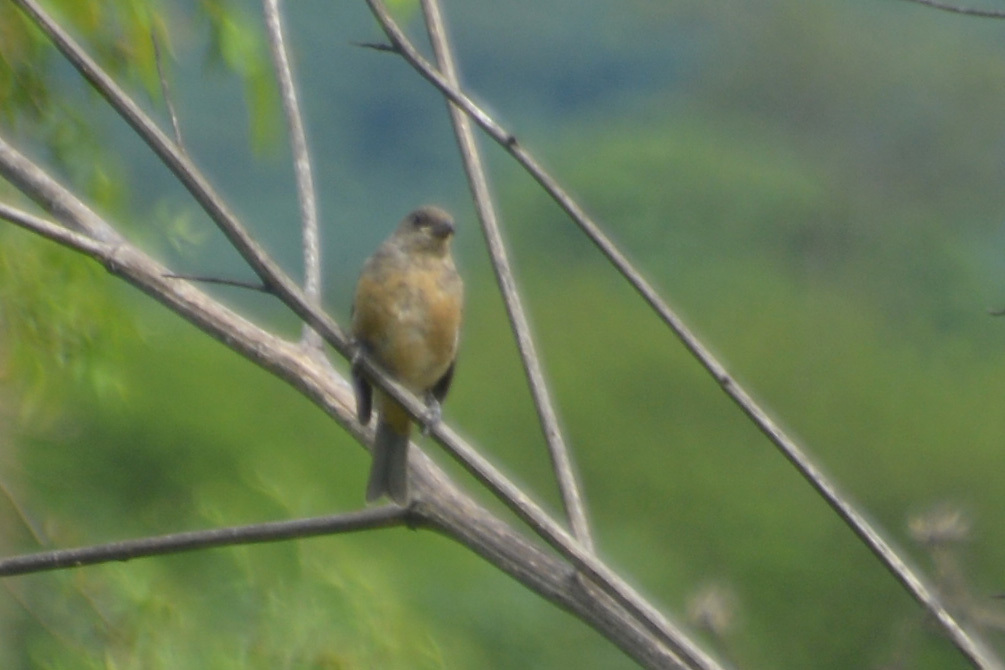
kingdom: Animalia
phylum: Chordata
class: Aves
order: Passeriformes
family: Thraupidae
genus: Rauenia
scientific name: Rauenia bonariensis
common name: Blue-and-yellow tanager
